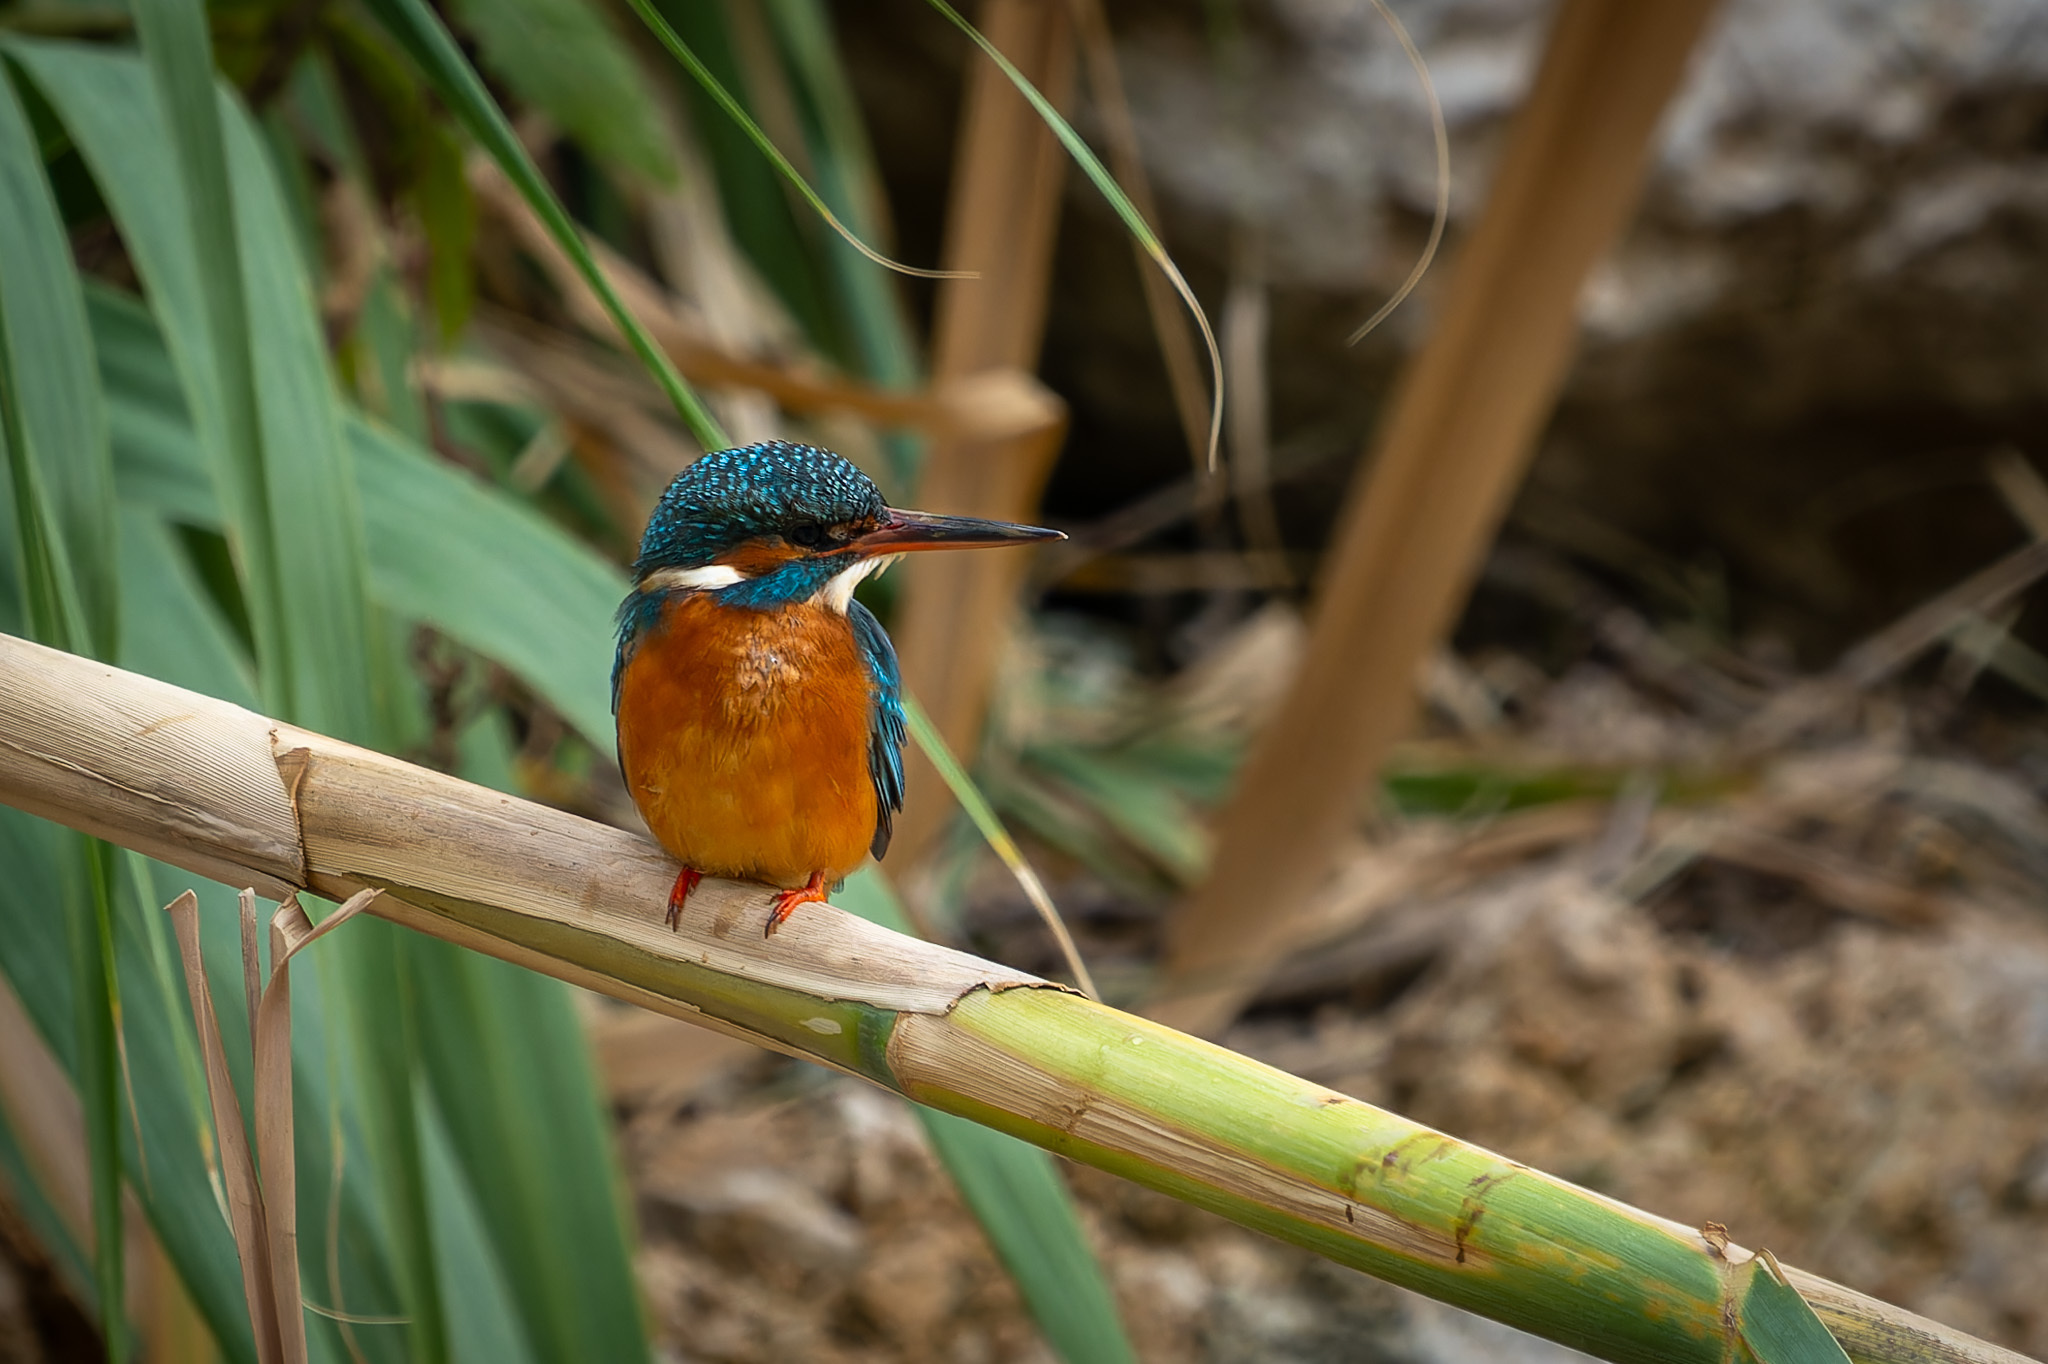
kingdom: Animalia
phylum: Chordata
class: Aves
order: Coraciiformes
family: Alcedinidae
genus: Alcedo
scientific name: Alcedo atthis
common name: Common kingfisher
